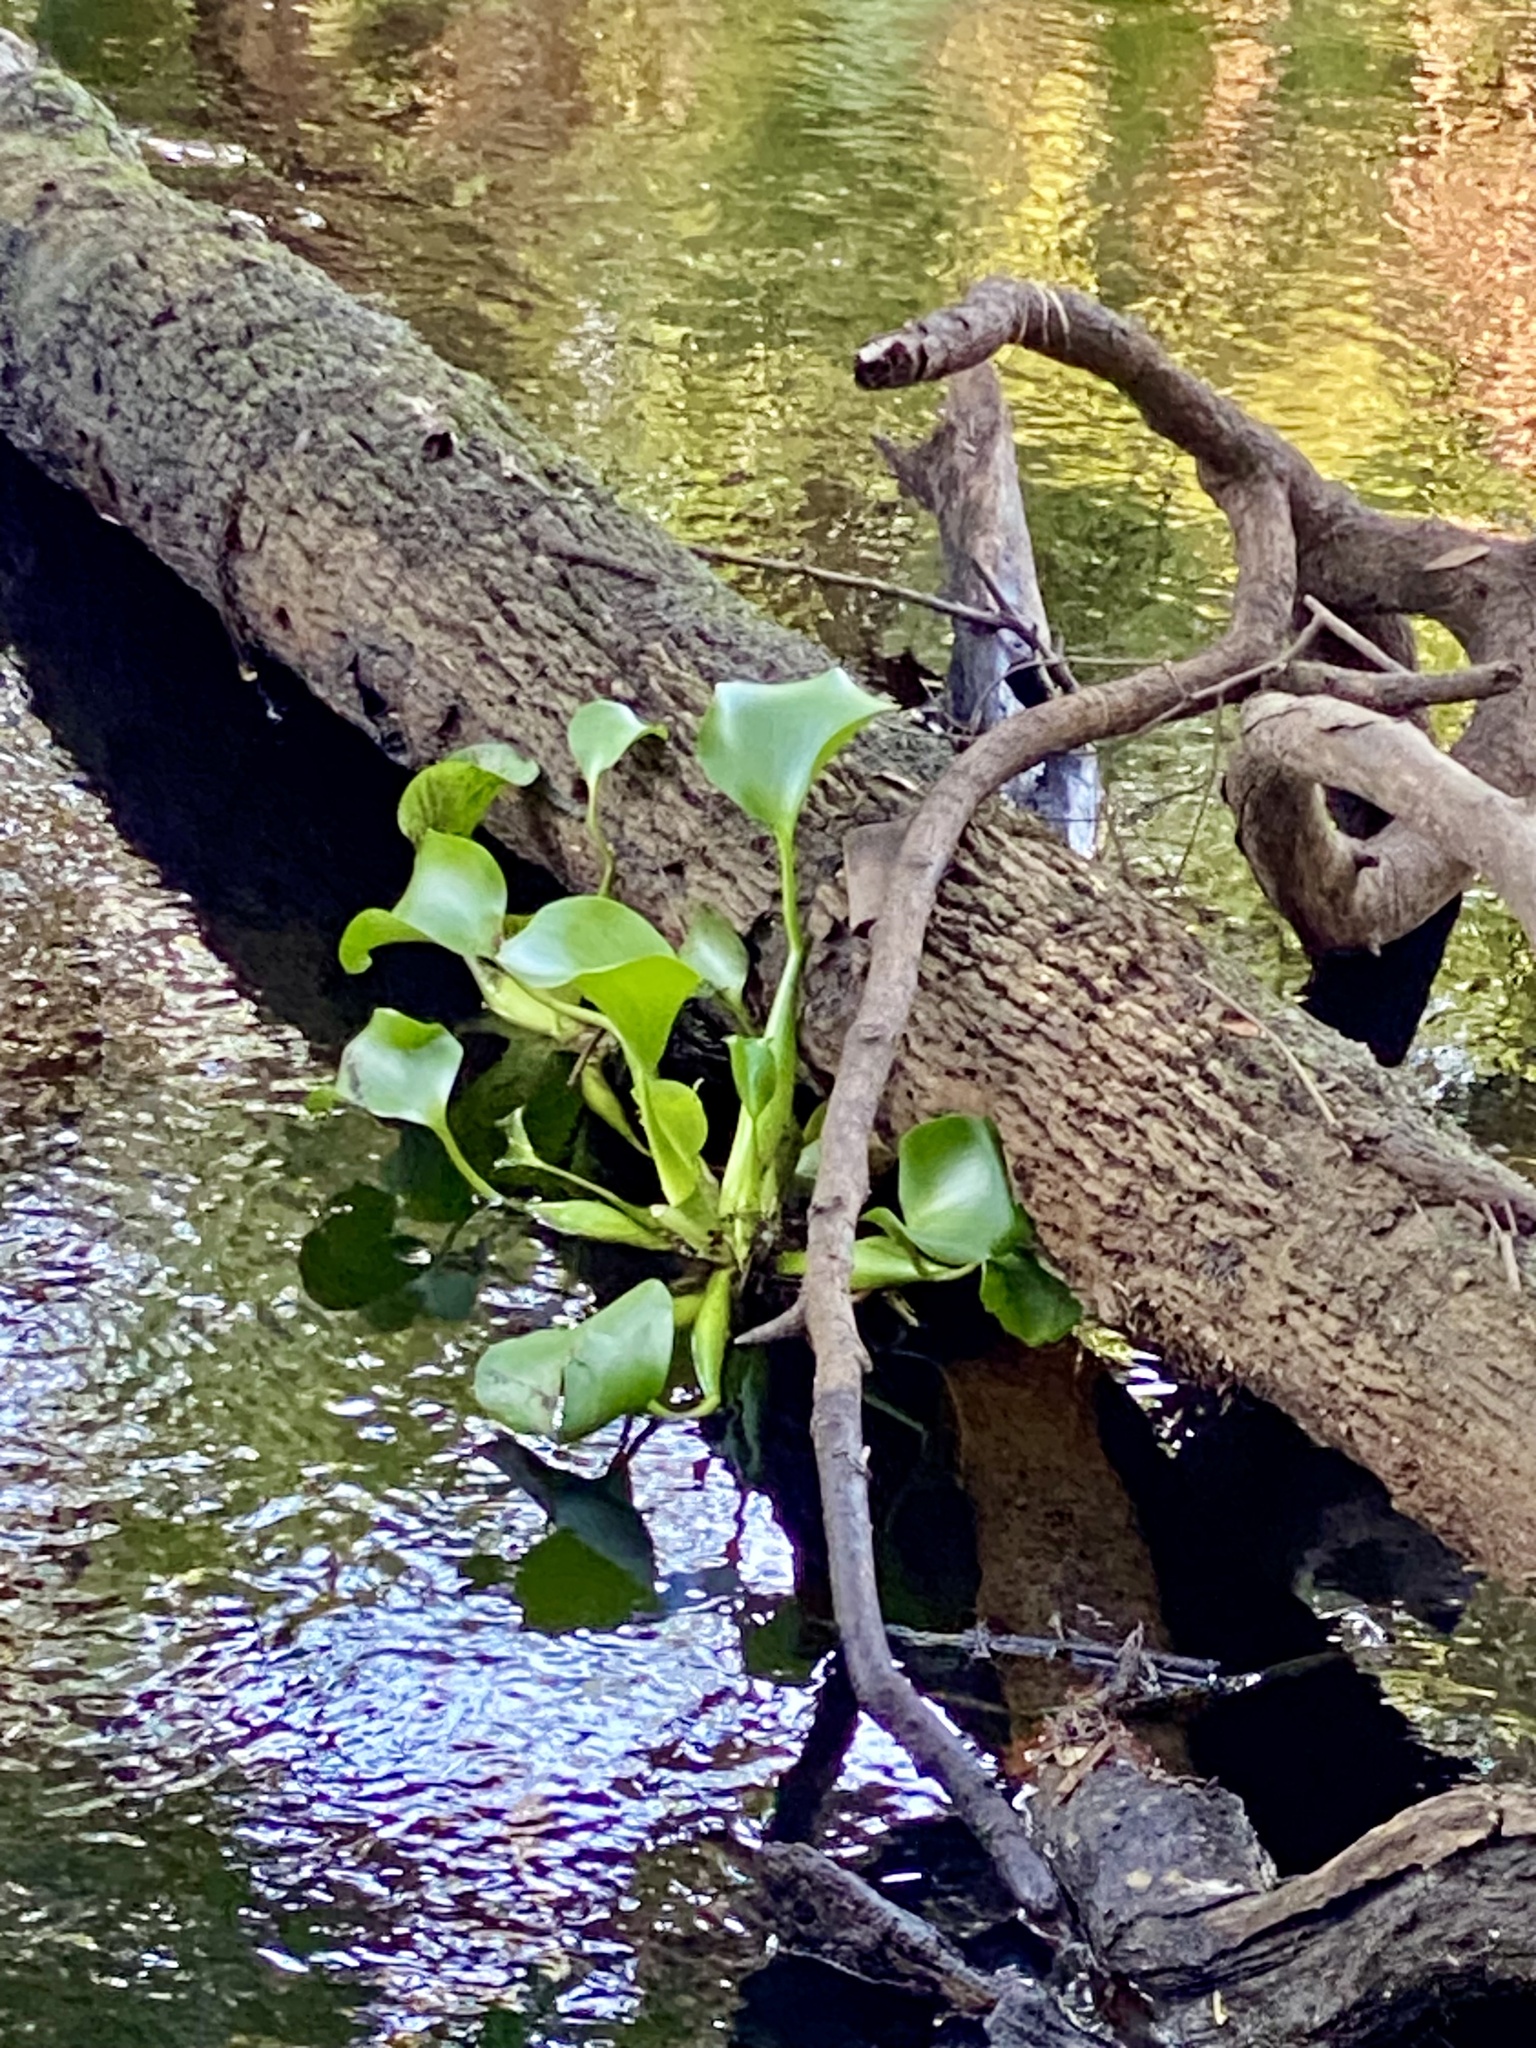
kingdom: Plantae
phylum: Tracheophyta
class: Liliopsida
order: Commelinales
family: Pontederiaceae
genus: Pontederia
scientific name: Pontederia crassipes
